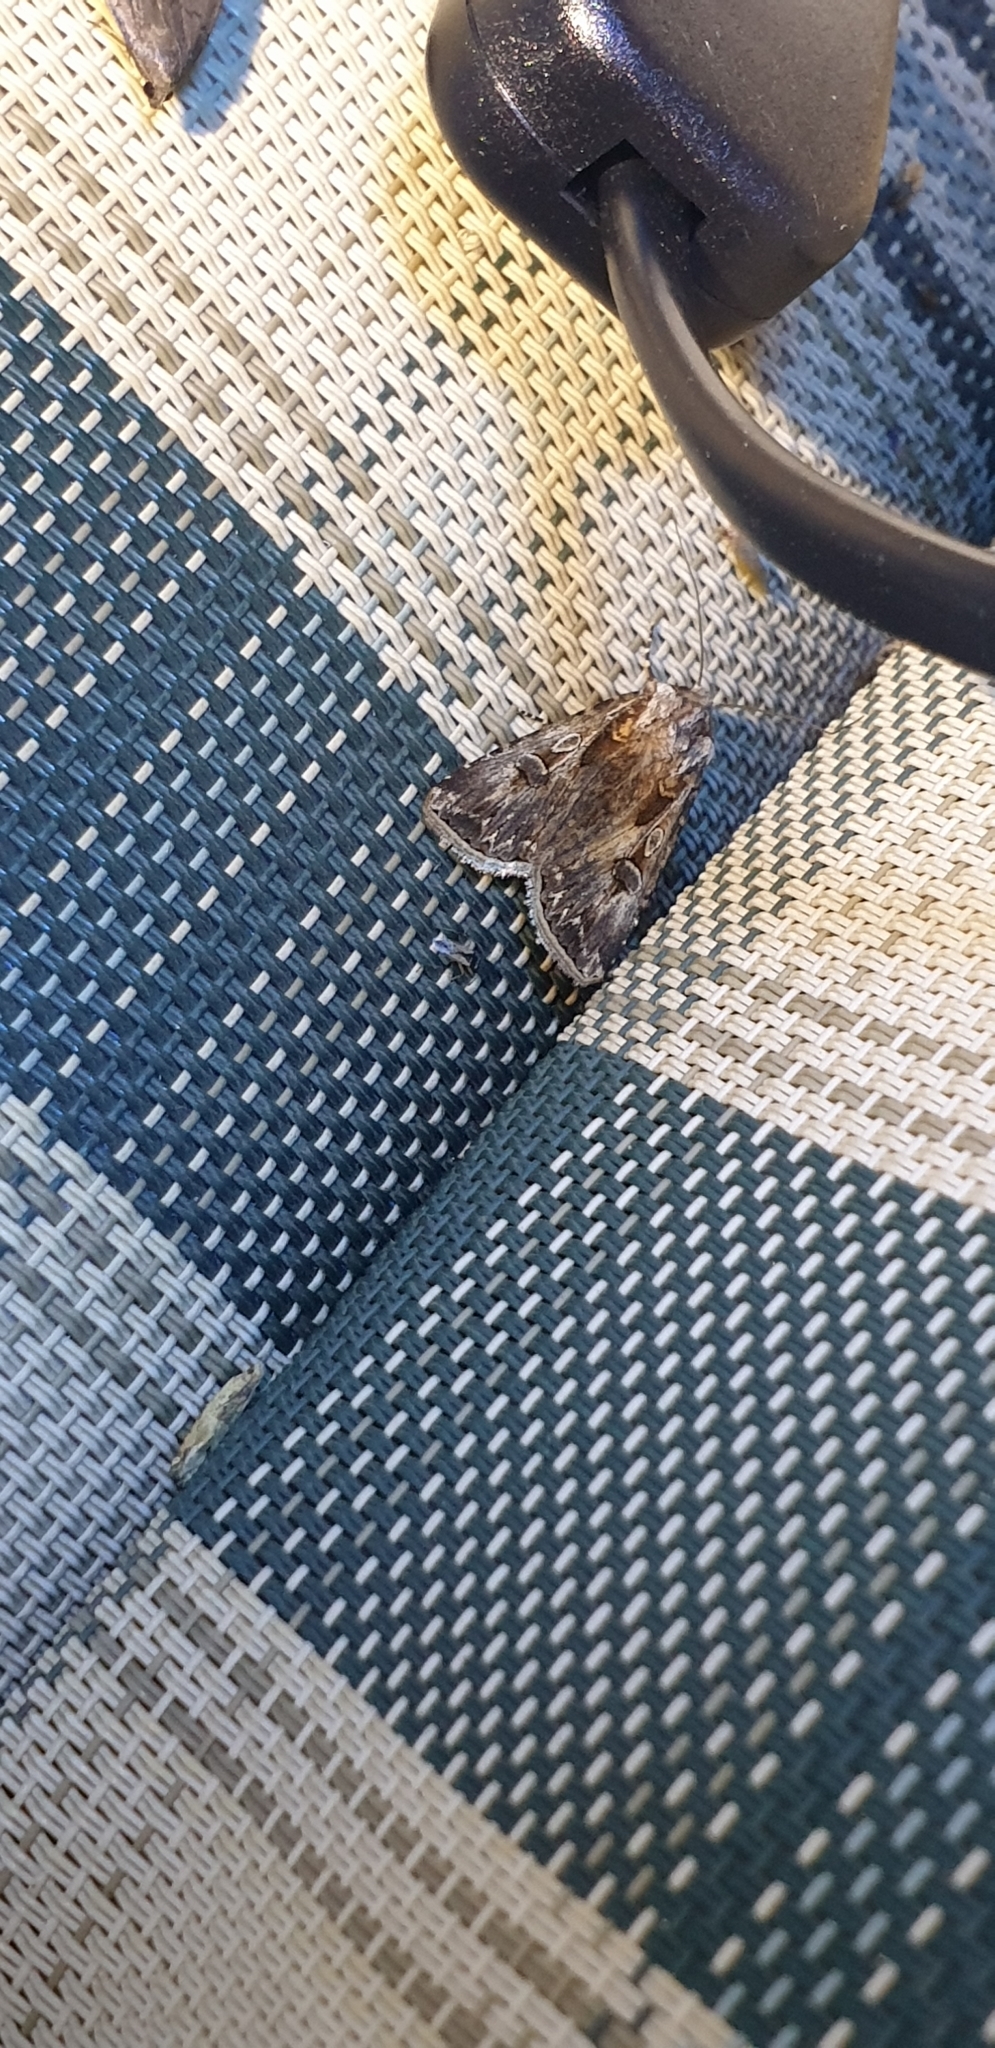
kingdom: Animalia
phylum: Arthropoda
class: Insecta
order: Lepidoptera
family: Noctuidae
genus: Agrotis
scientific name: Agrotis munda
